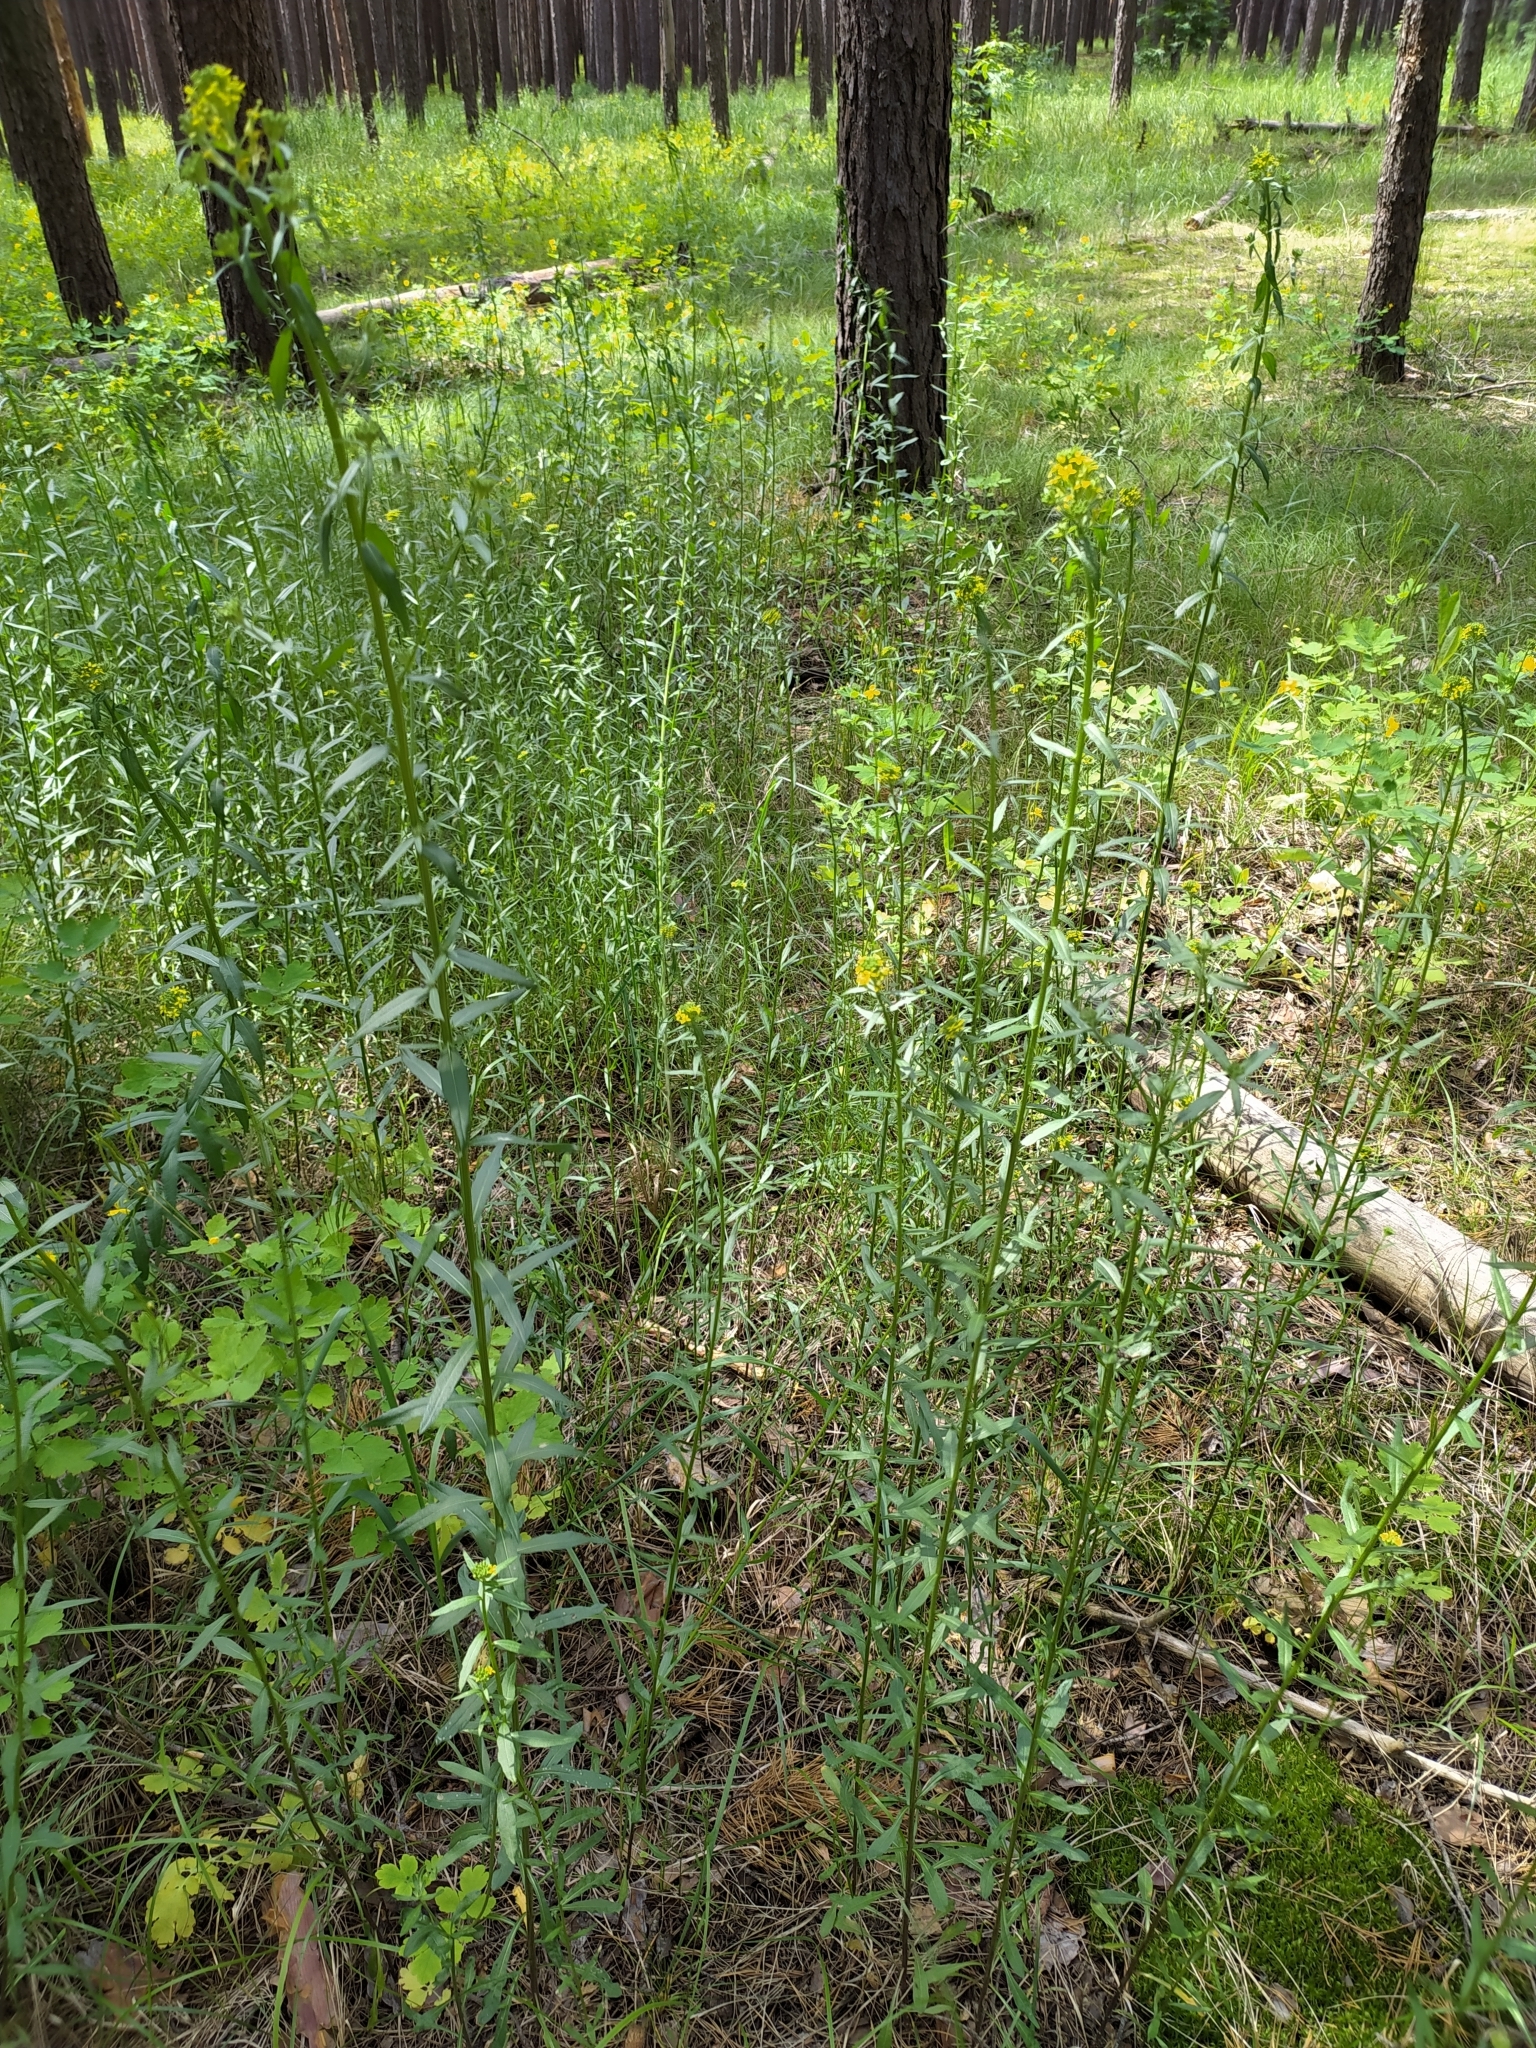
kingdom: Plantae
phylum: Tracheophyta
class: Magnoliopsida
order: Brassicales
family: Brassicaceae
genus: Erysimum
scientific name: Erysimum hieraciifolium
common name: European wallflower
